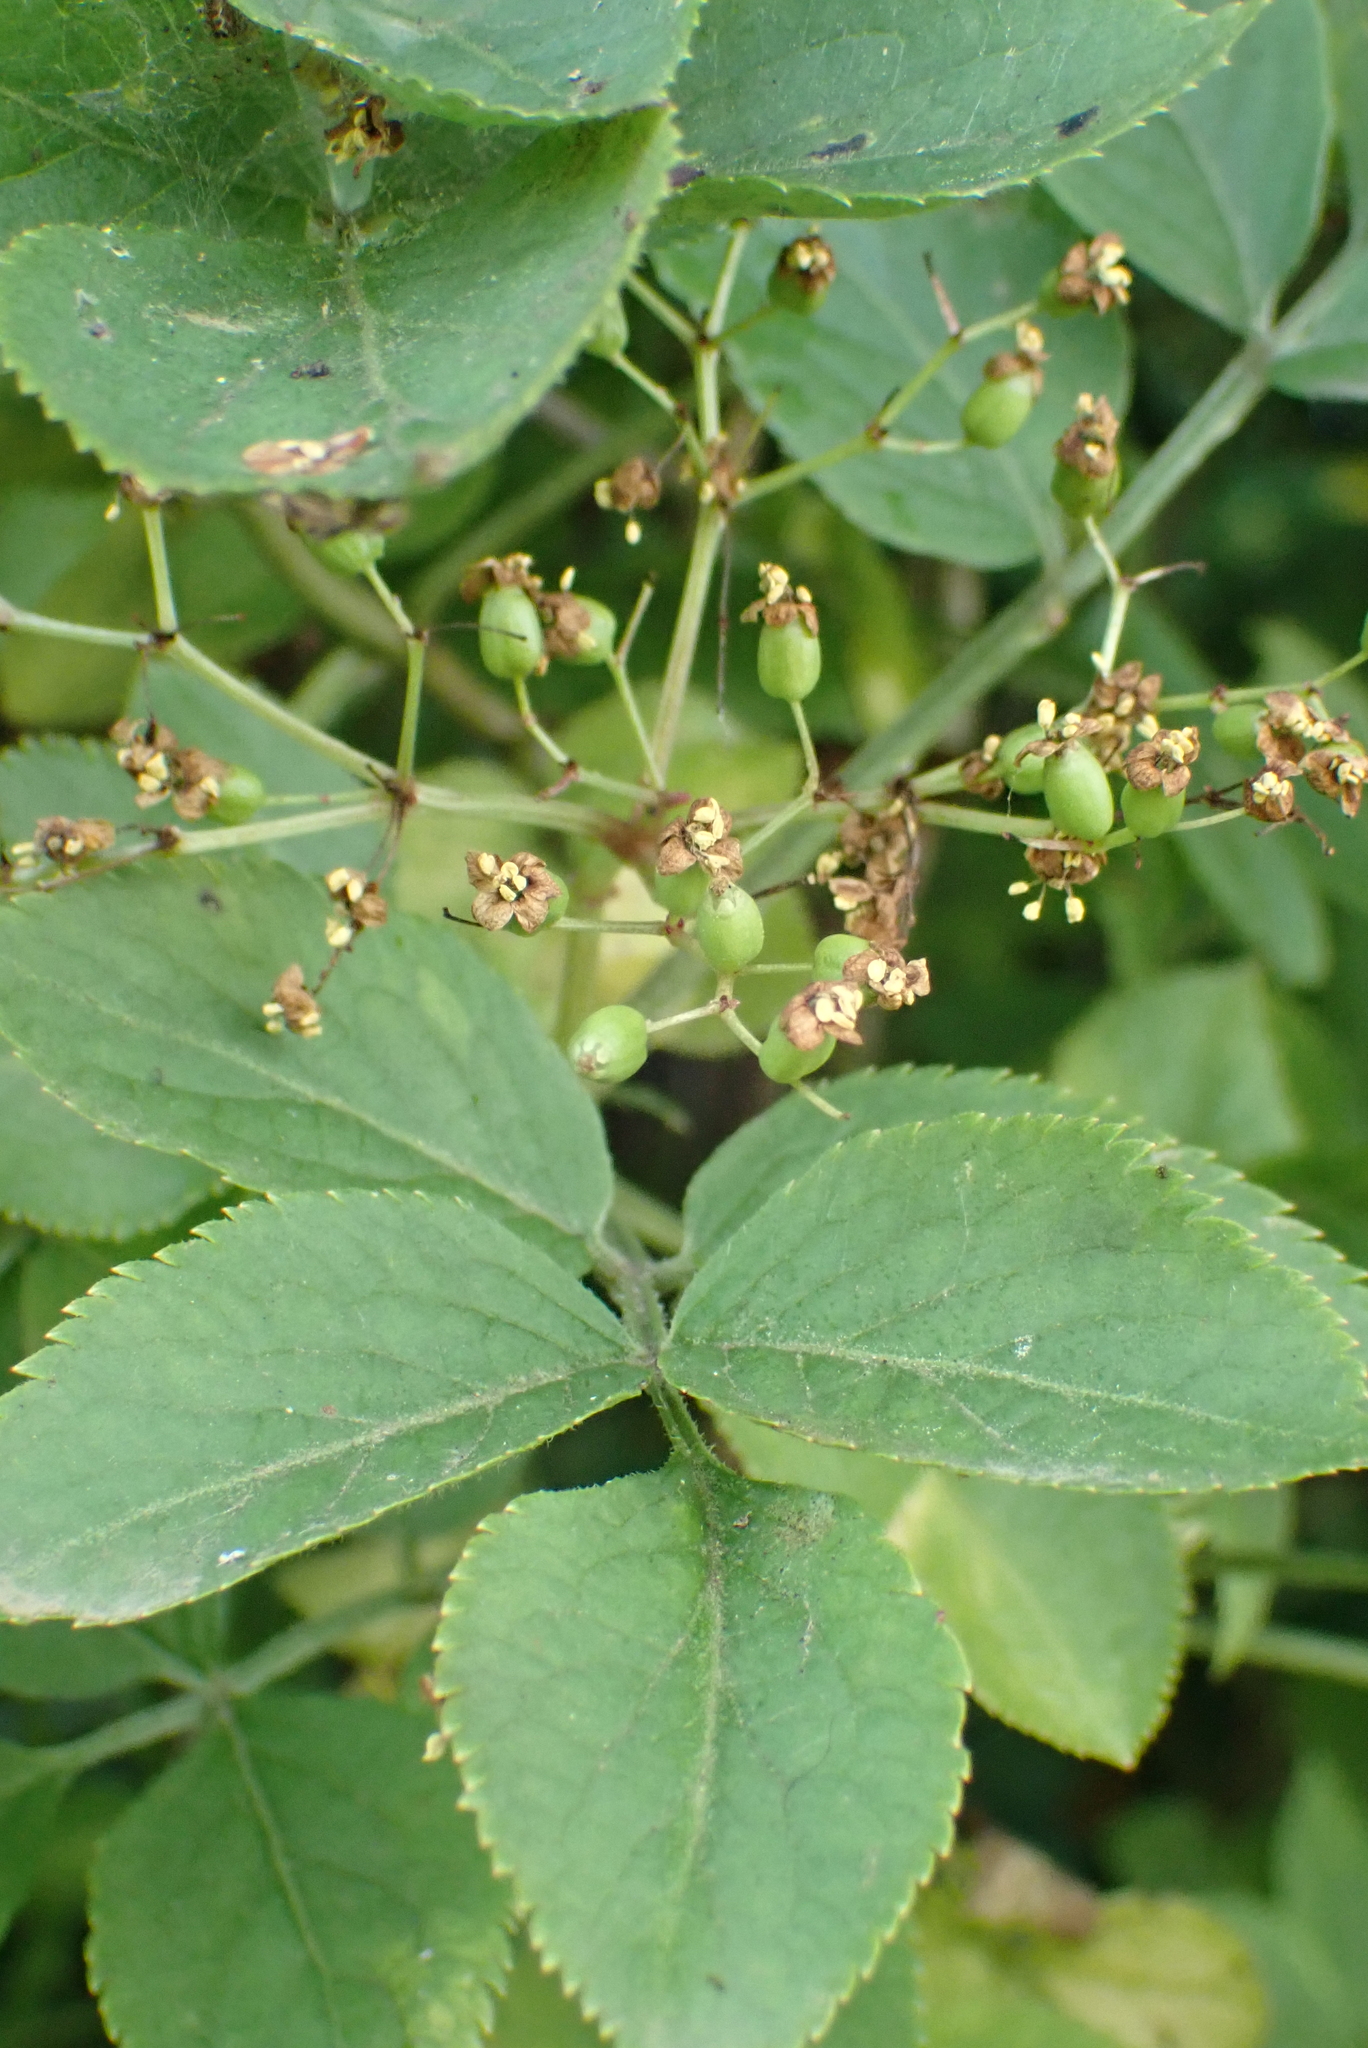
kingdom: Plantae
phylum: Tracheophyta
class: Magnoliopsida
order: Dipsacales
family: Viburnaceae
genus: Sambucus
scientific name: Sambucus nigra
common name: Elder
